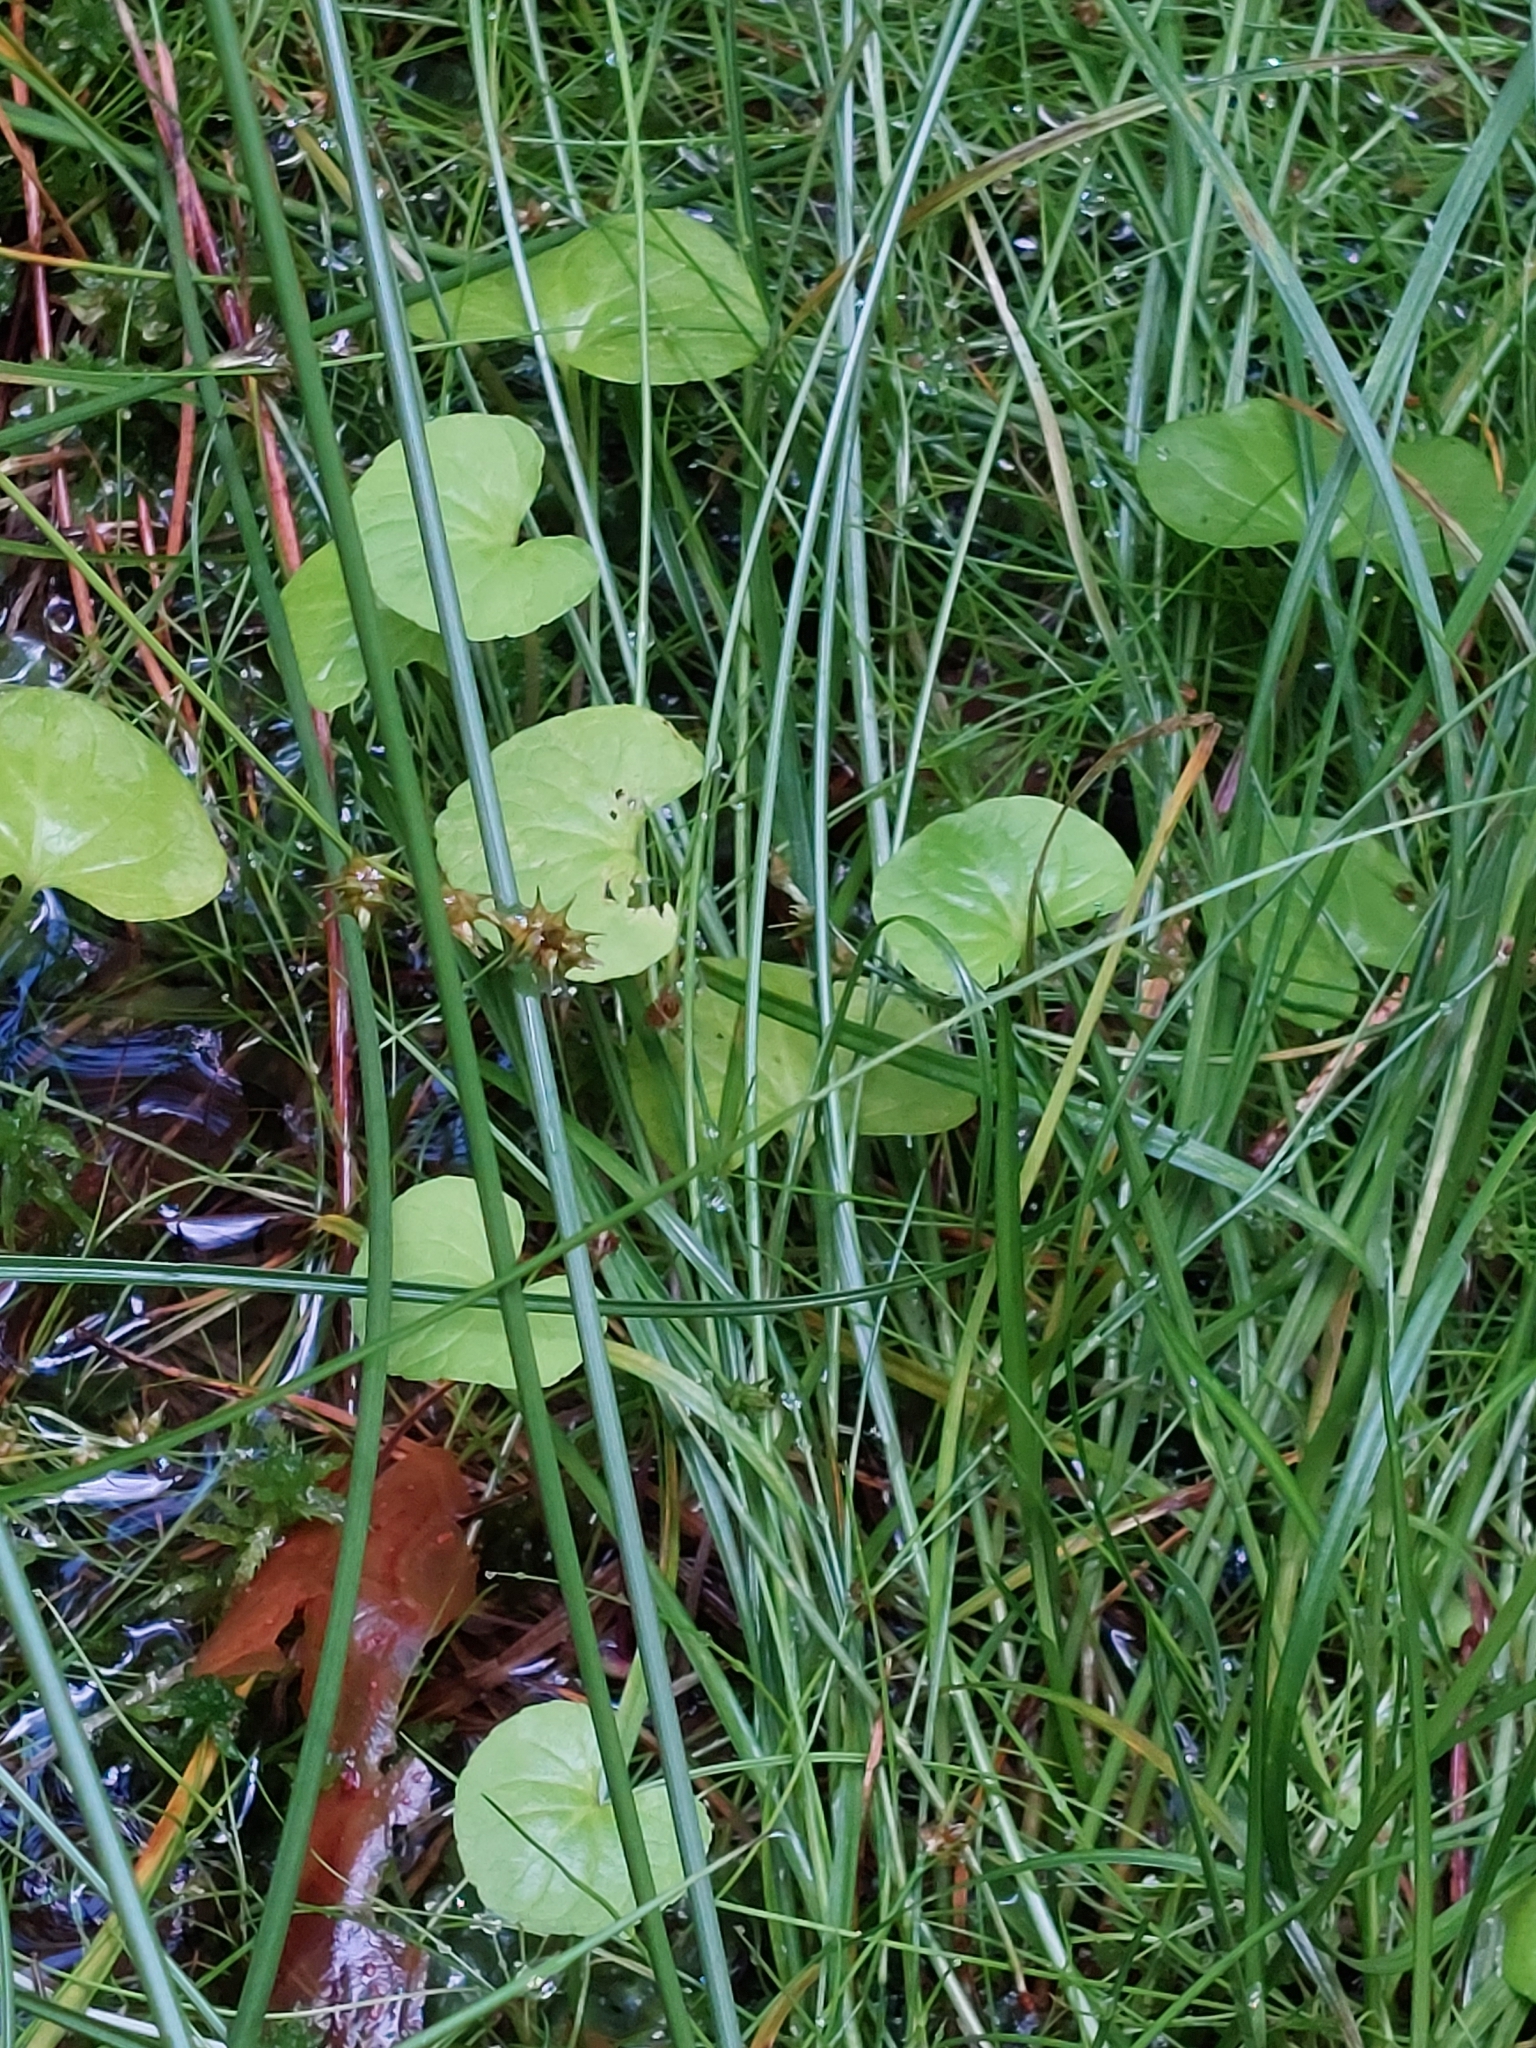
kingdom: Plantae
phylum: Tracheophyta
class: Magnoliopsida
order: Malpighiales
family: Violaceae
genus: Viola
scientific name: Viola palustris
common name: Marsh violet
